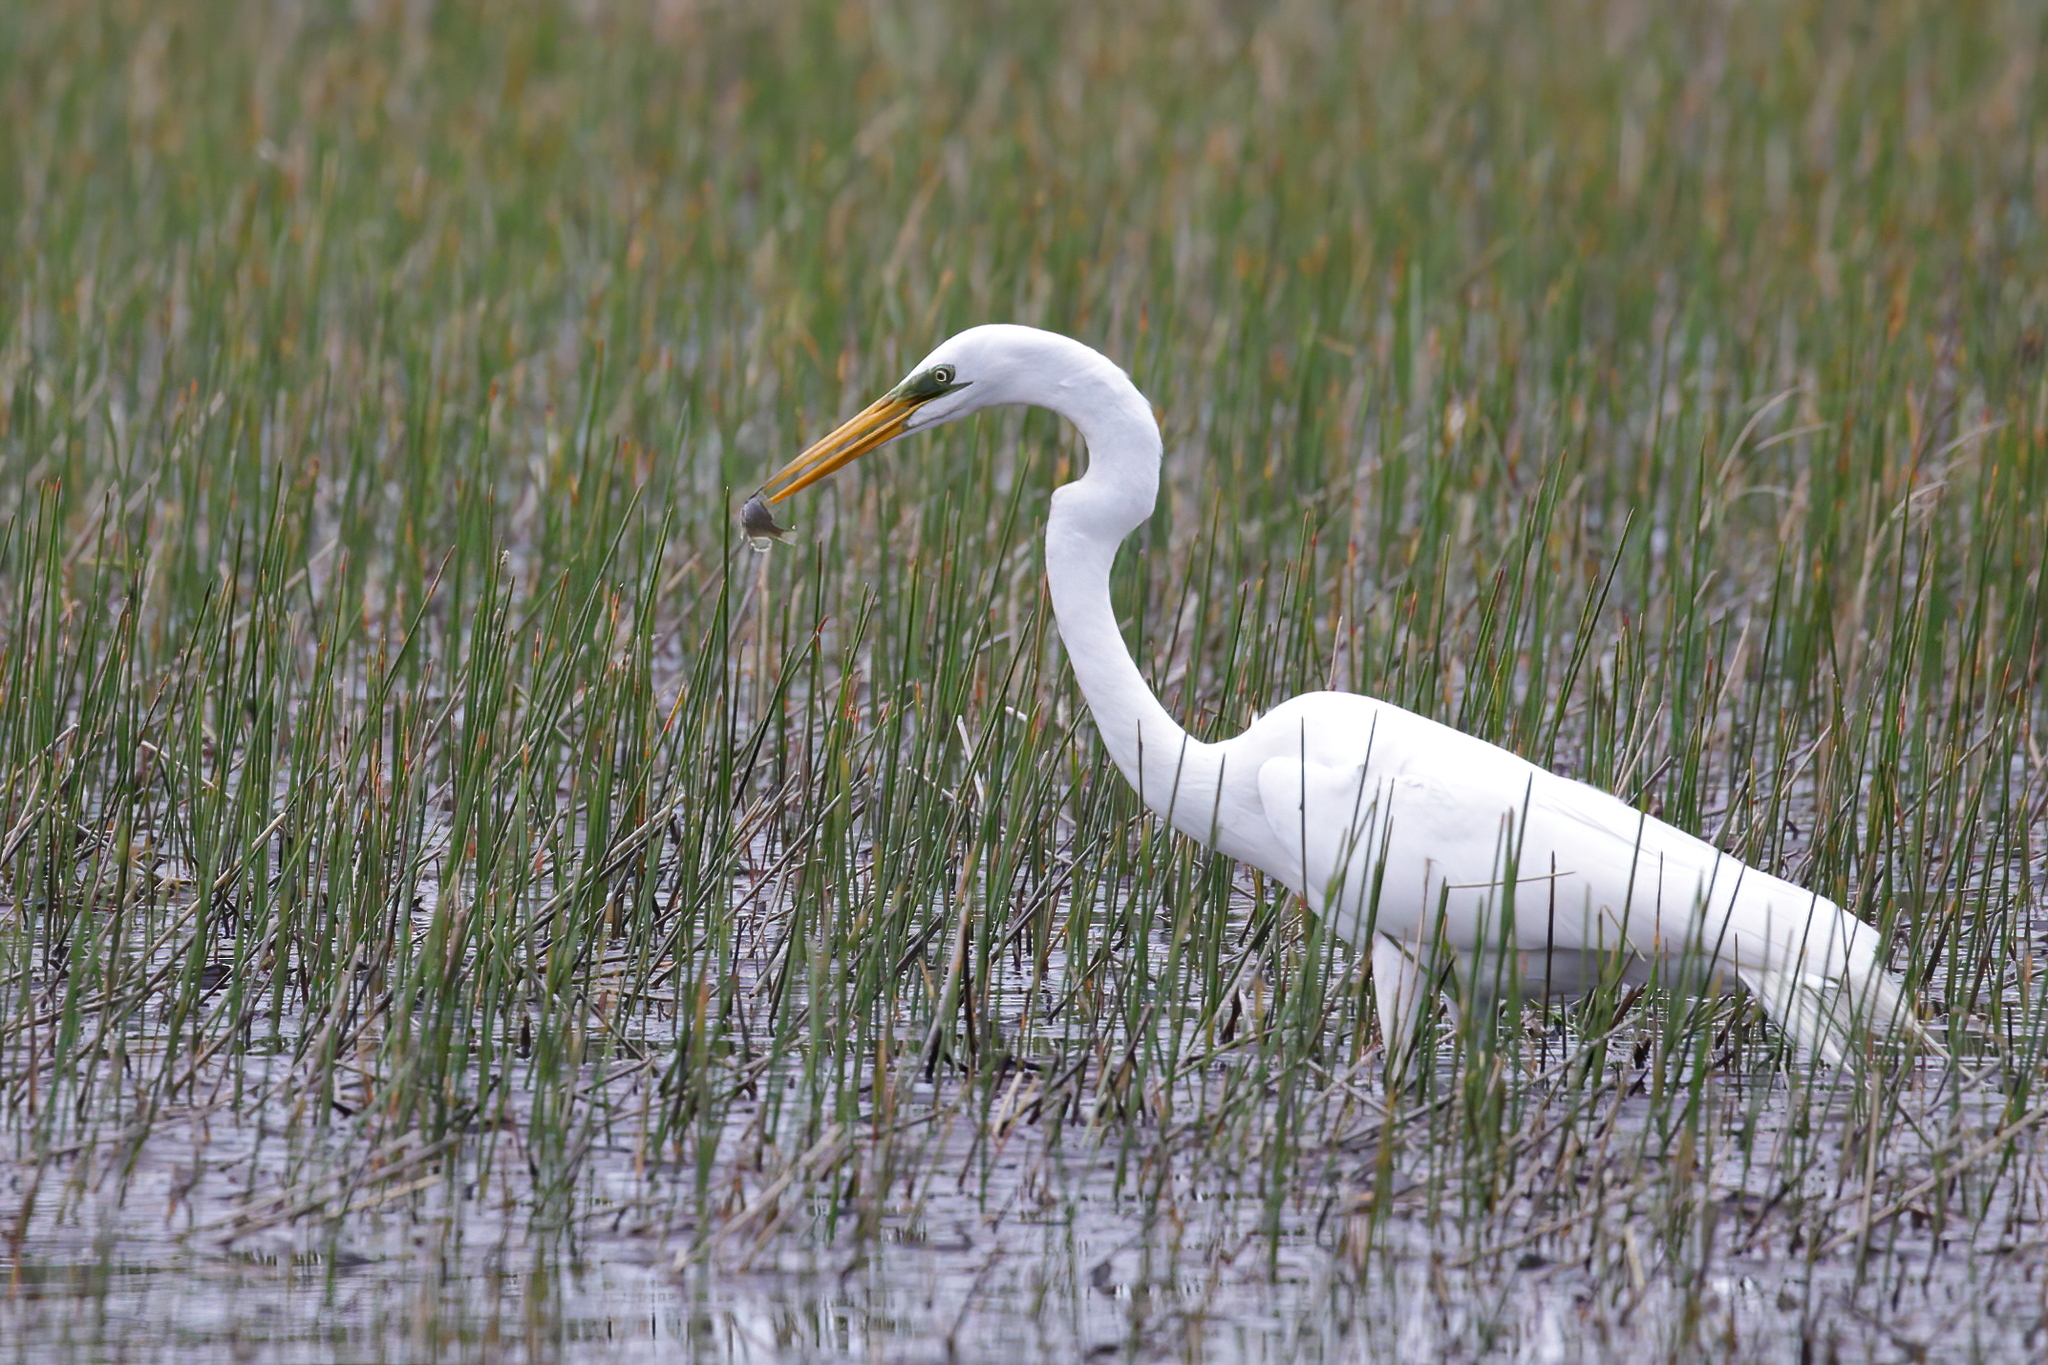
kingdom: Animalia
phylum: Chordata
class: Aves
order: Pelecaniformes
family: Ardeidae
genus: Ardea
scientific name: Ardea alba
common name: Great egret
